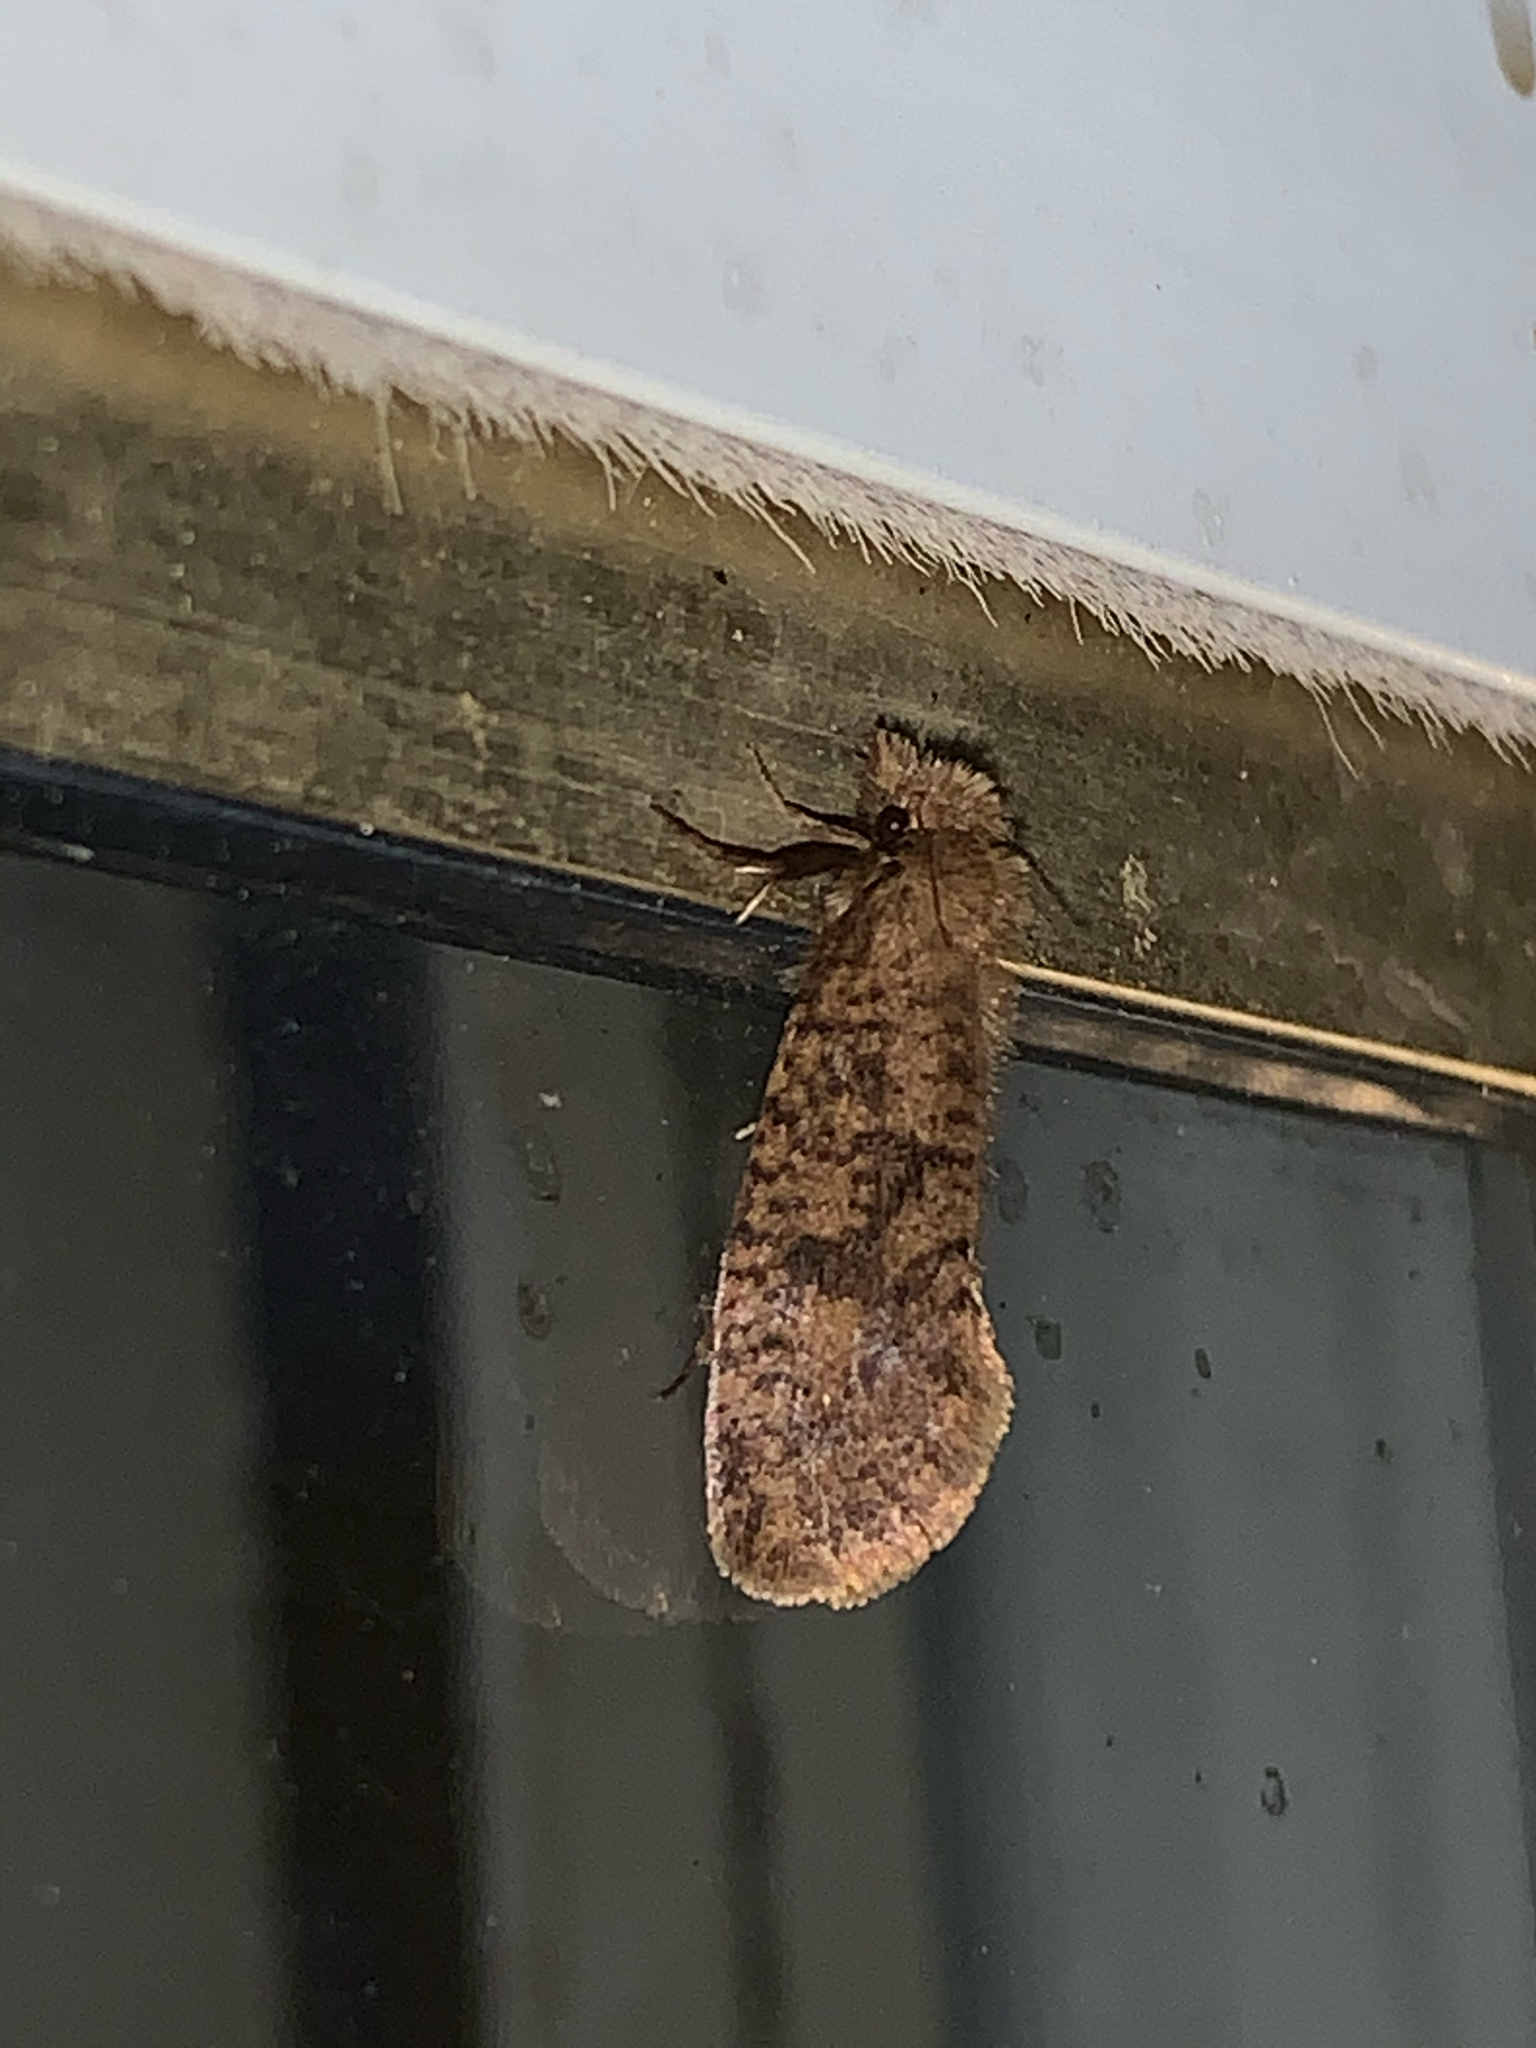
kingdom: Animalia
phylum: Arthropoda
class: Insecta
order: Lepidoptera
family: Tineidae
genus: Acrolophus
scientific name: Acrolophus propinqua
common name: Walsingham's grass tubeworm moth
